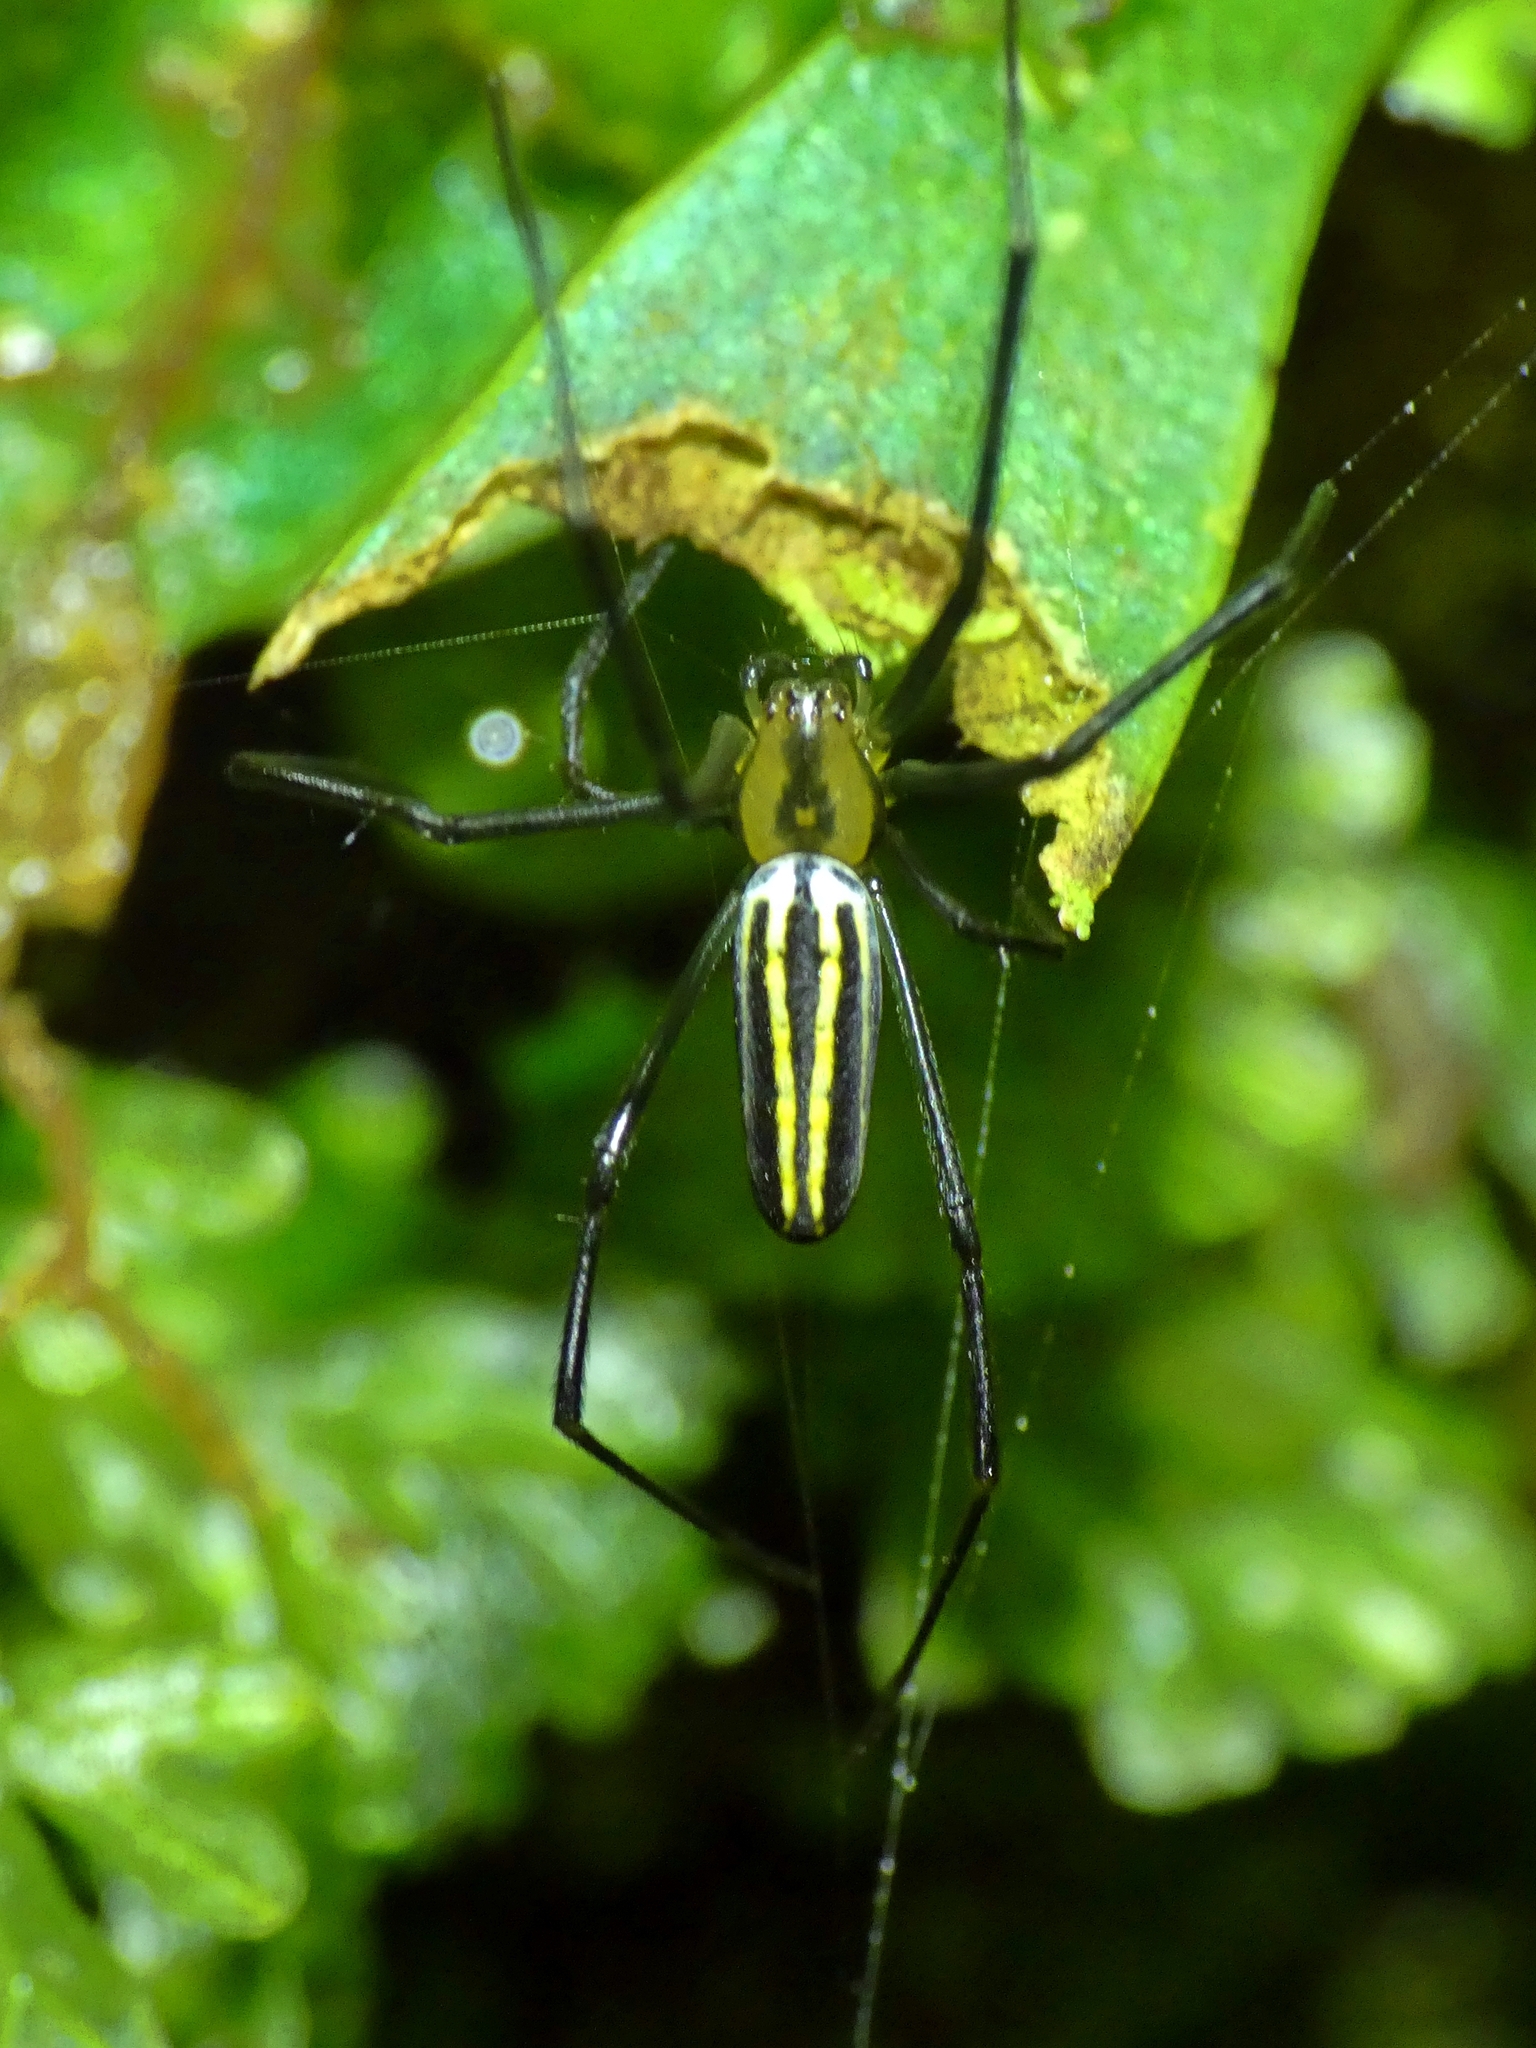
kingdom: Animalia
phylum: Arthropoda
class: Arachnida
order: Araneae
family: Araneidae
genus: Nephila
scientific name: Nephila pilipes
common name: Giant golden orb weaver
